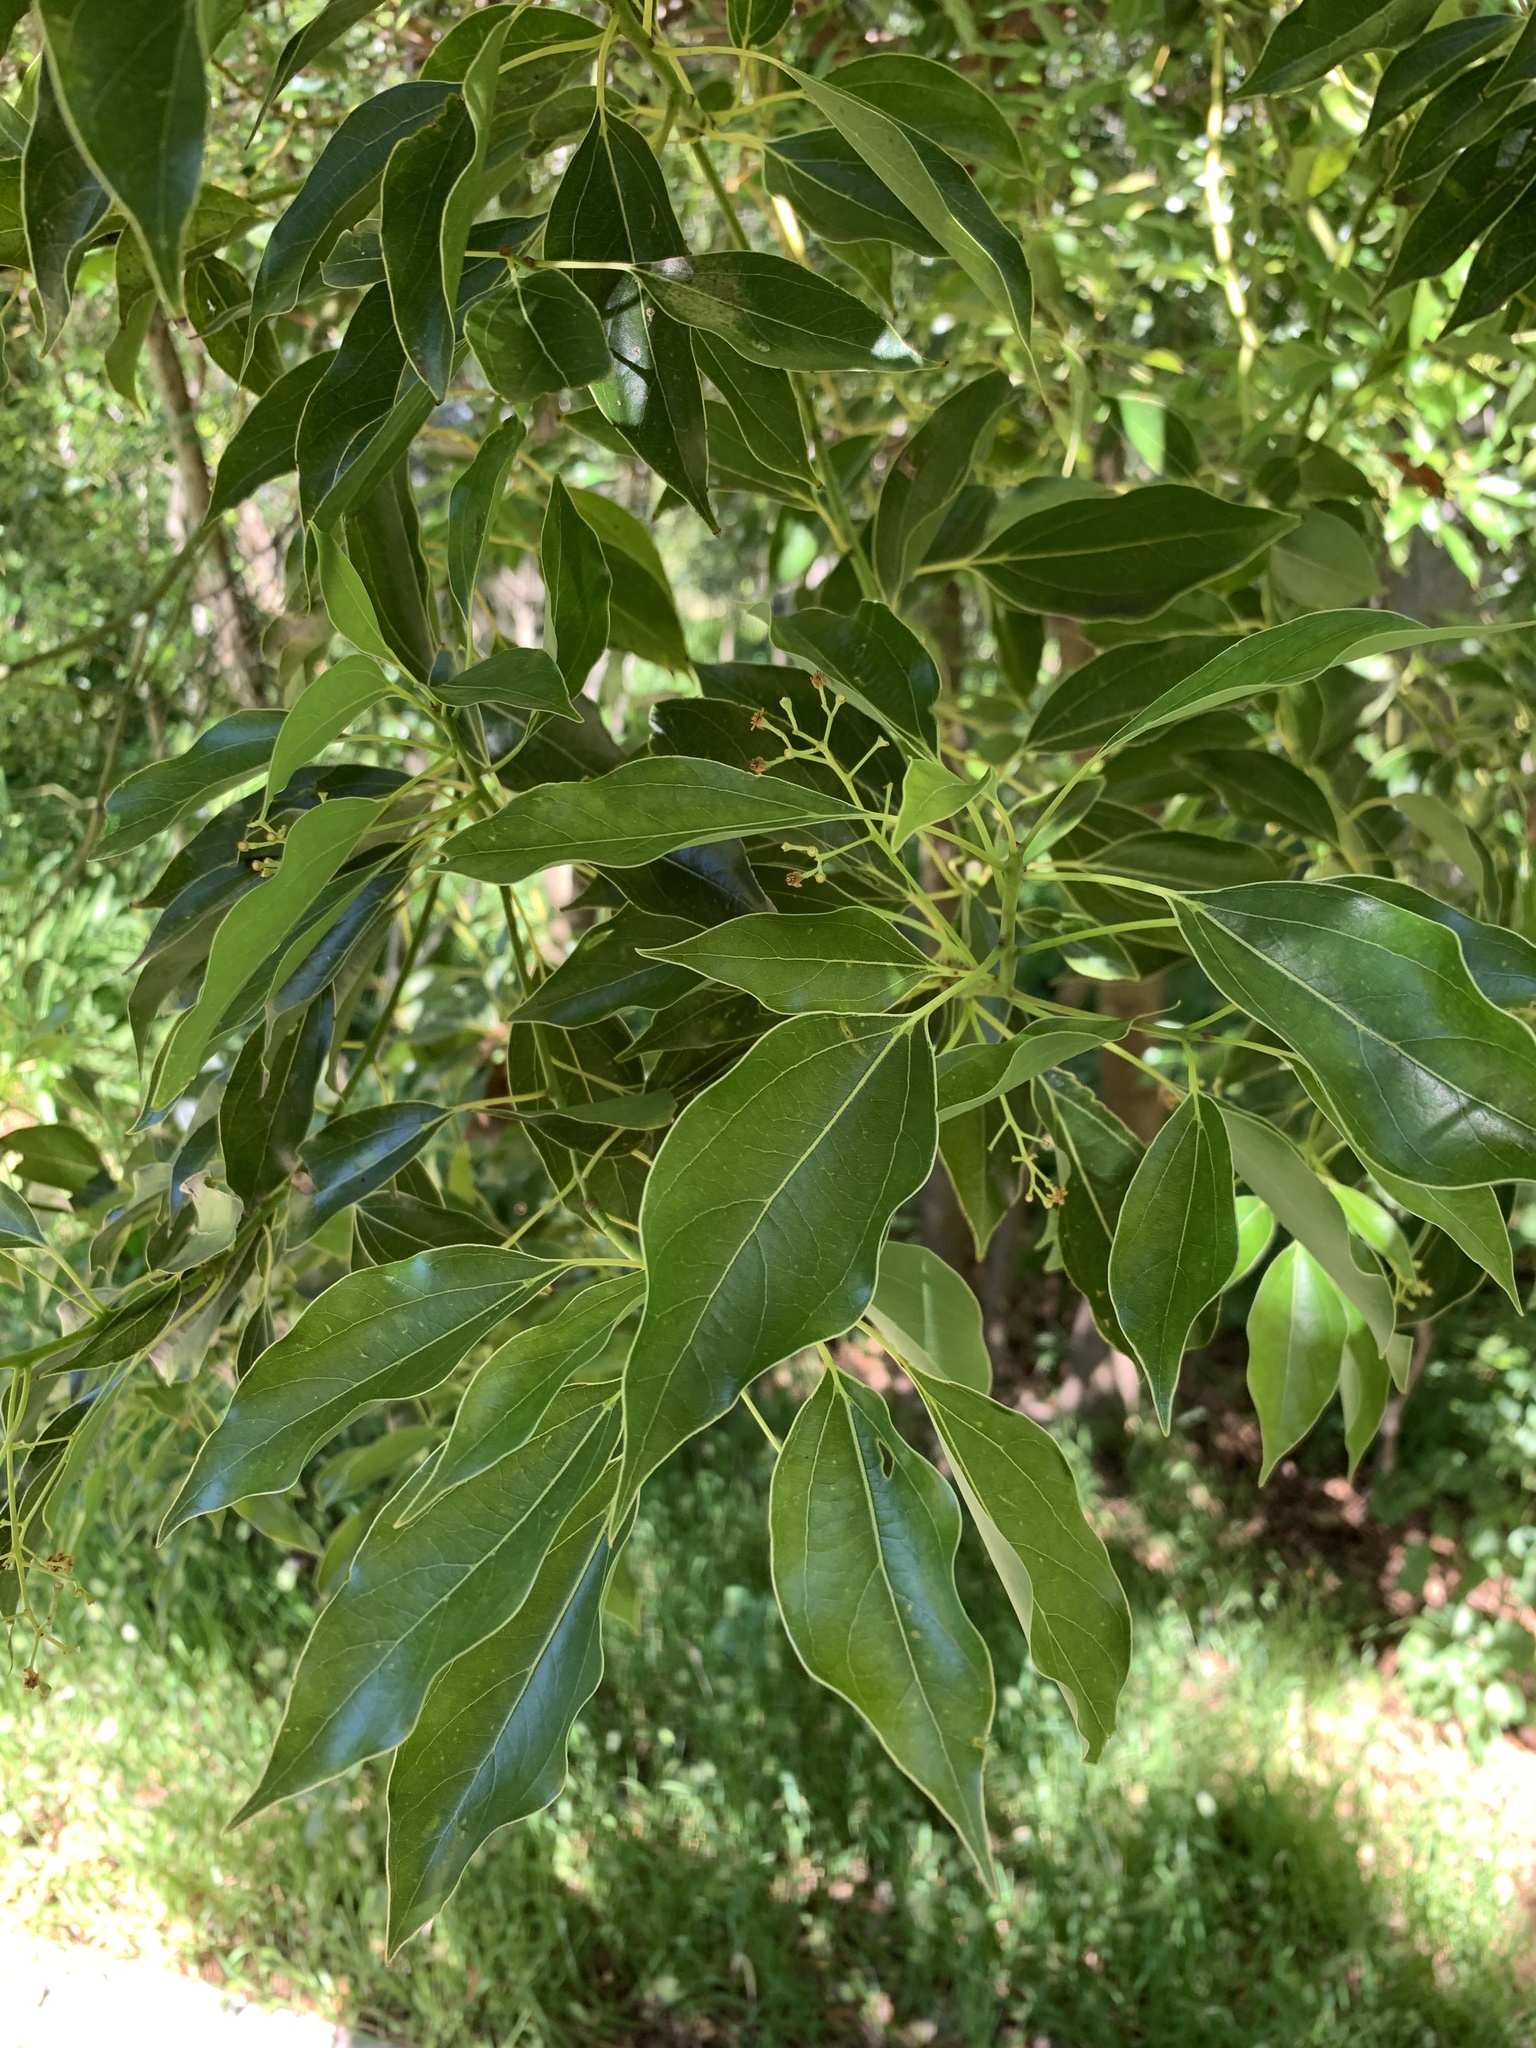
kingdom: Plantae
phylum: Tracheophyta
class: Magnoliopsida
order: Laurales
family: Lauraceae
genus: Cinnamomum
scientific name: Cinnamomum camphora
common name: Camphortree
